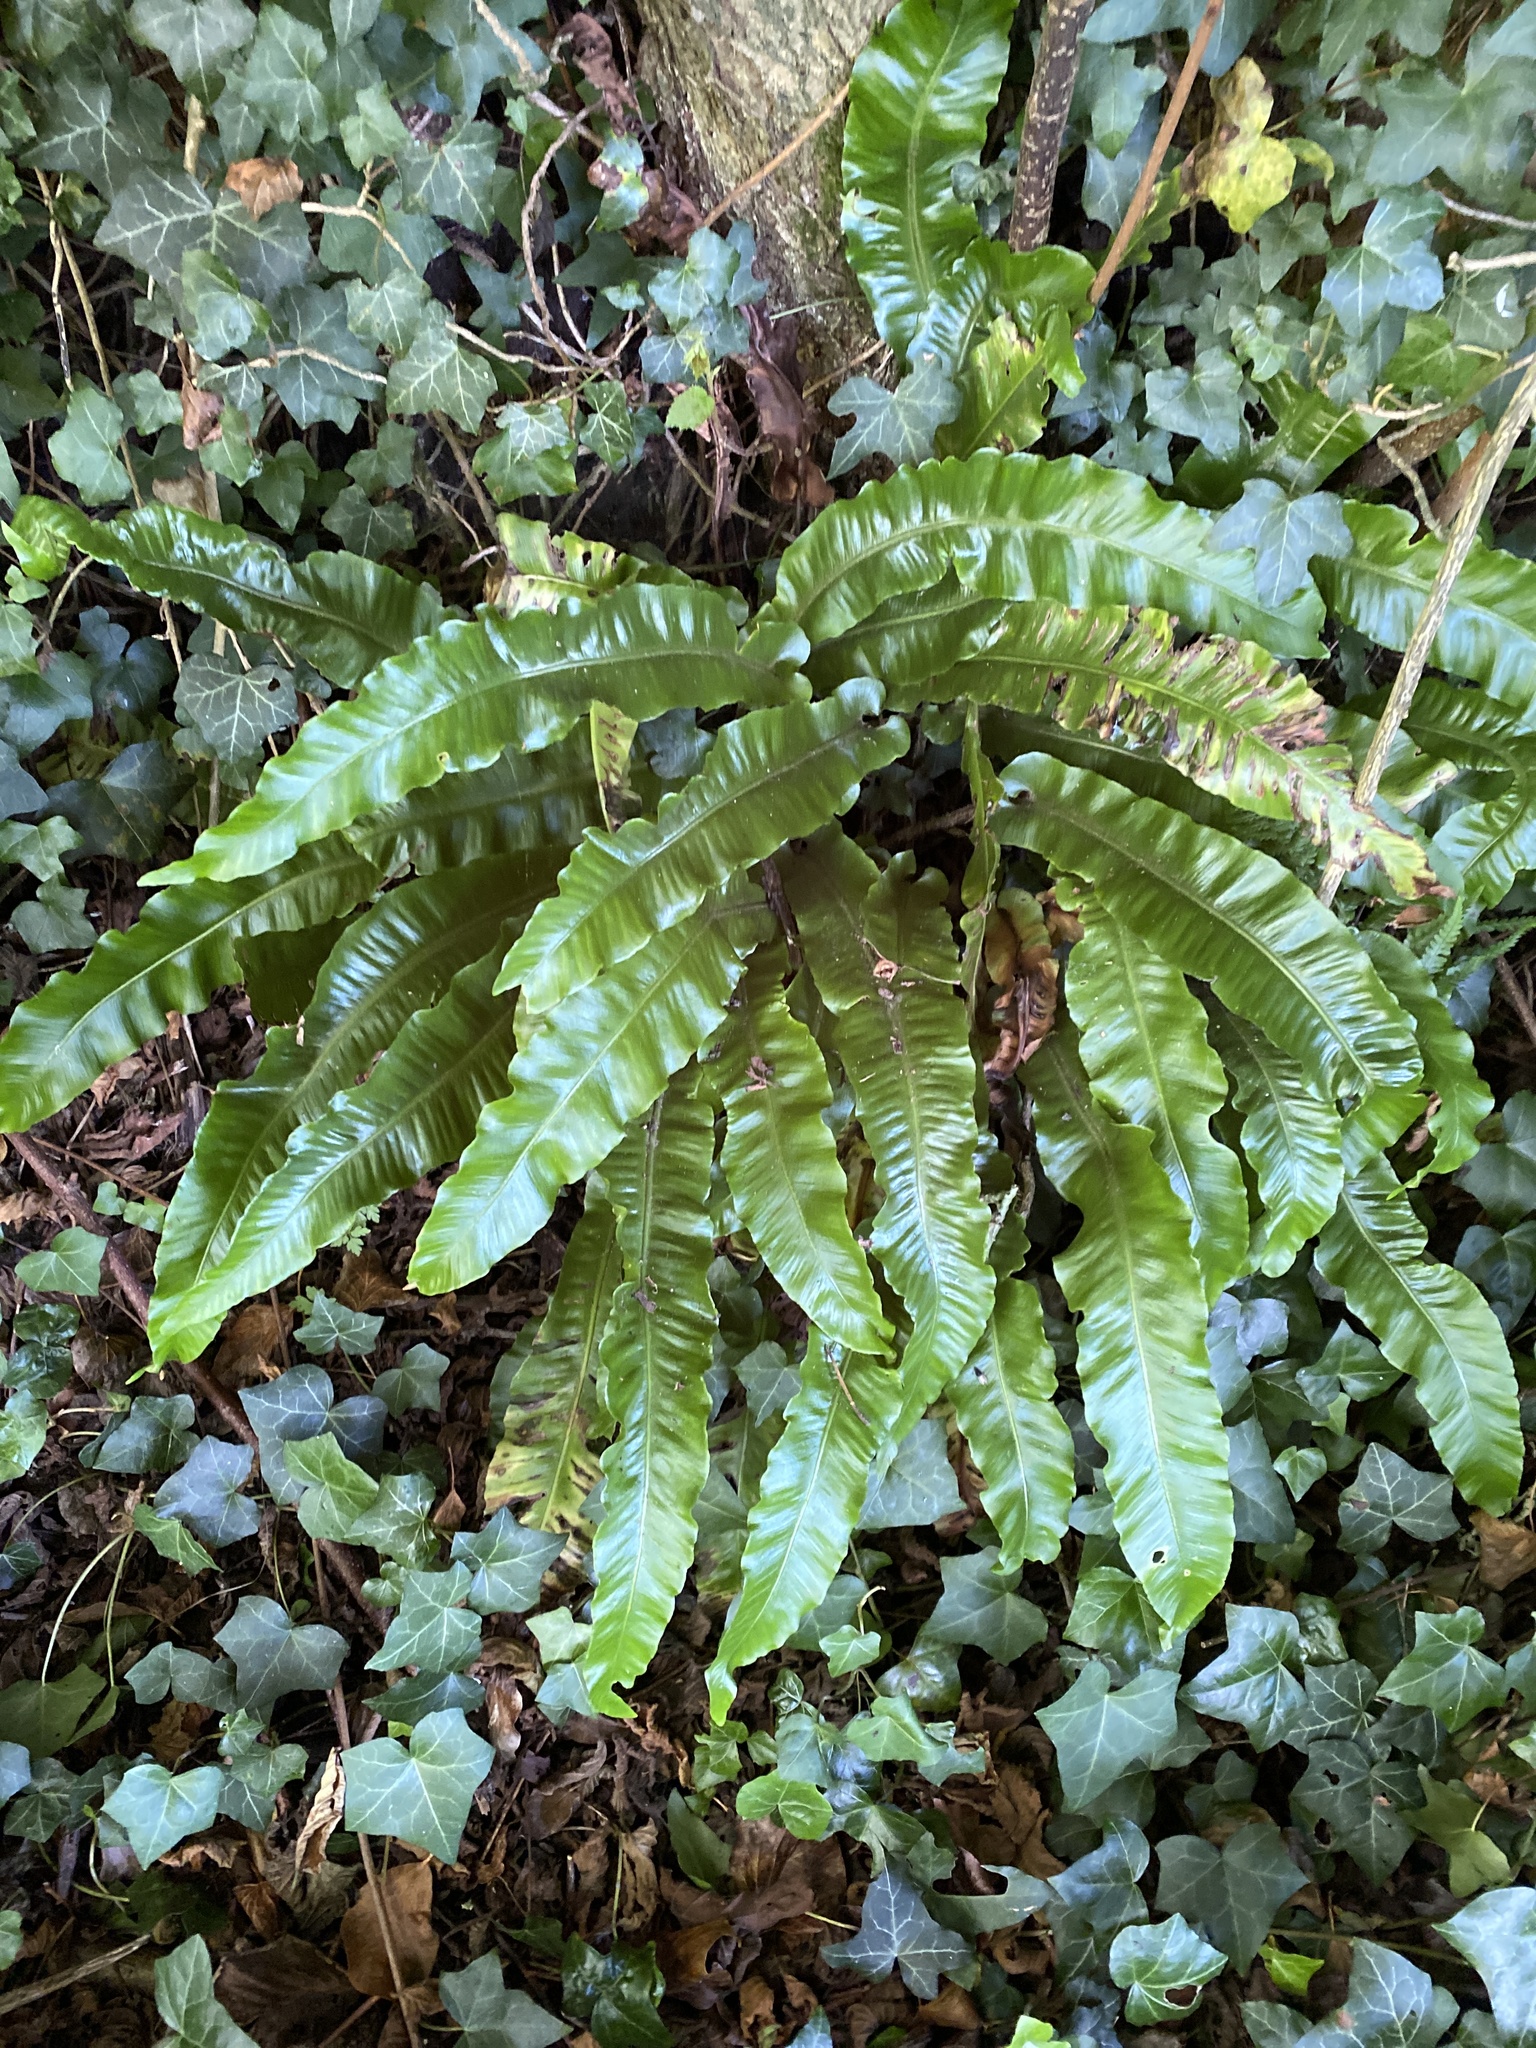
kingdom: Plantae
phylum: Tracheophyta
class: Polypodiopsida
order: Polypodiales
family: Aspleniaceae
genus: Asplenium
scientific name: Asplenium scolopendrium
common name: Hart's-tongue fern
